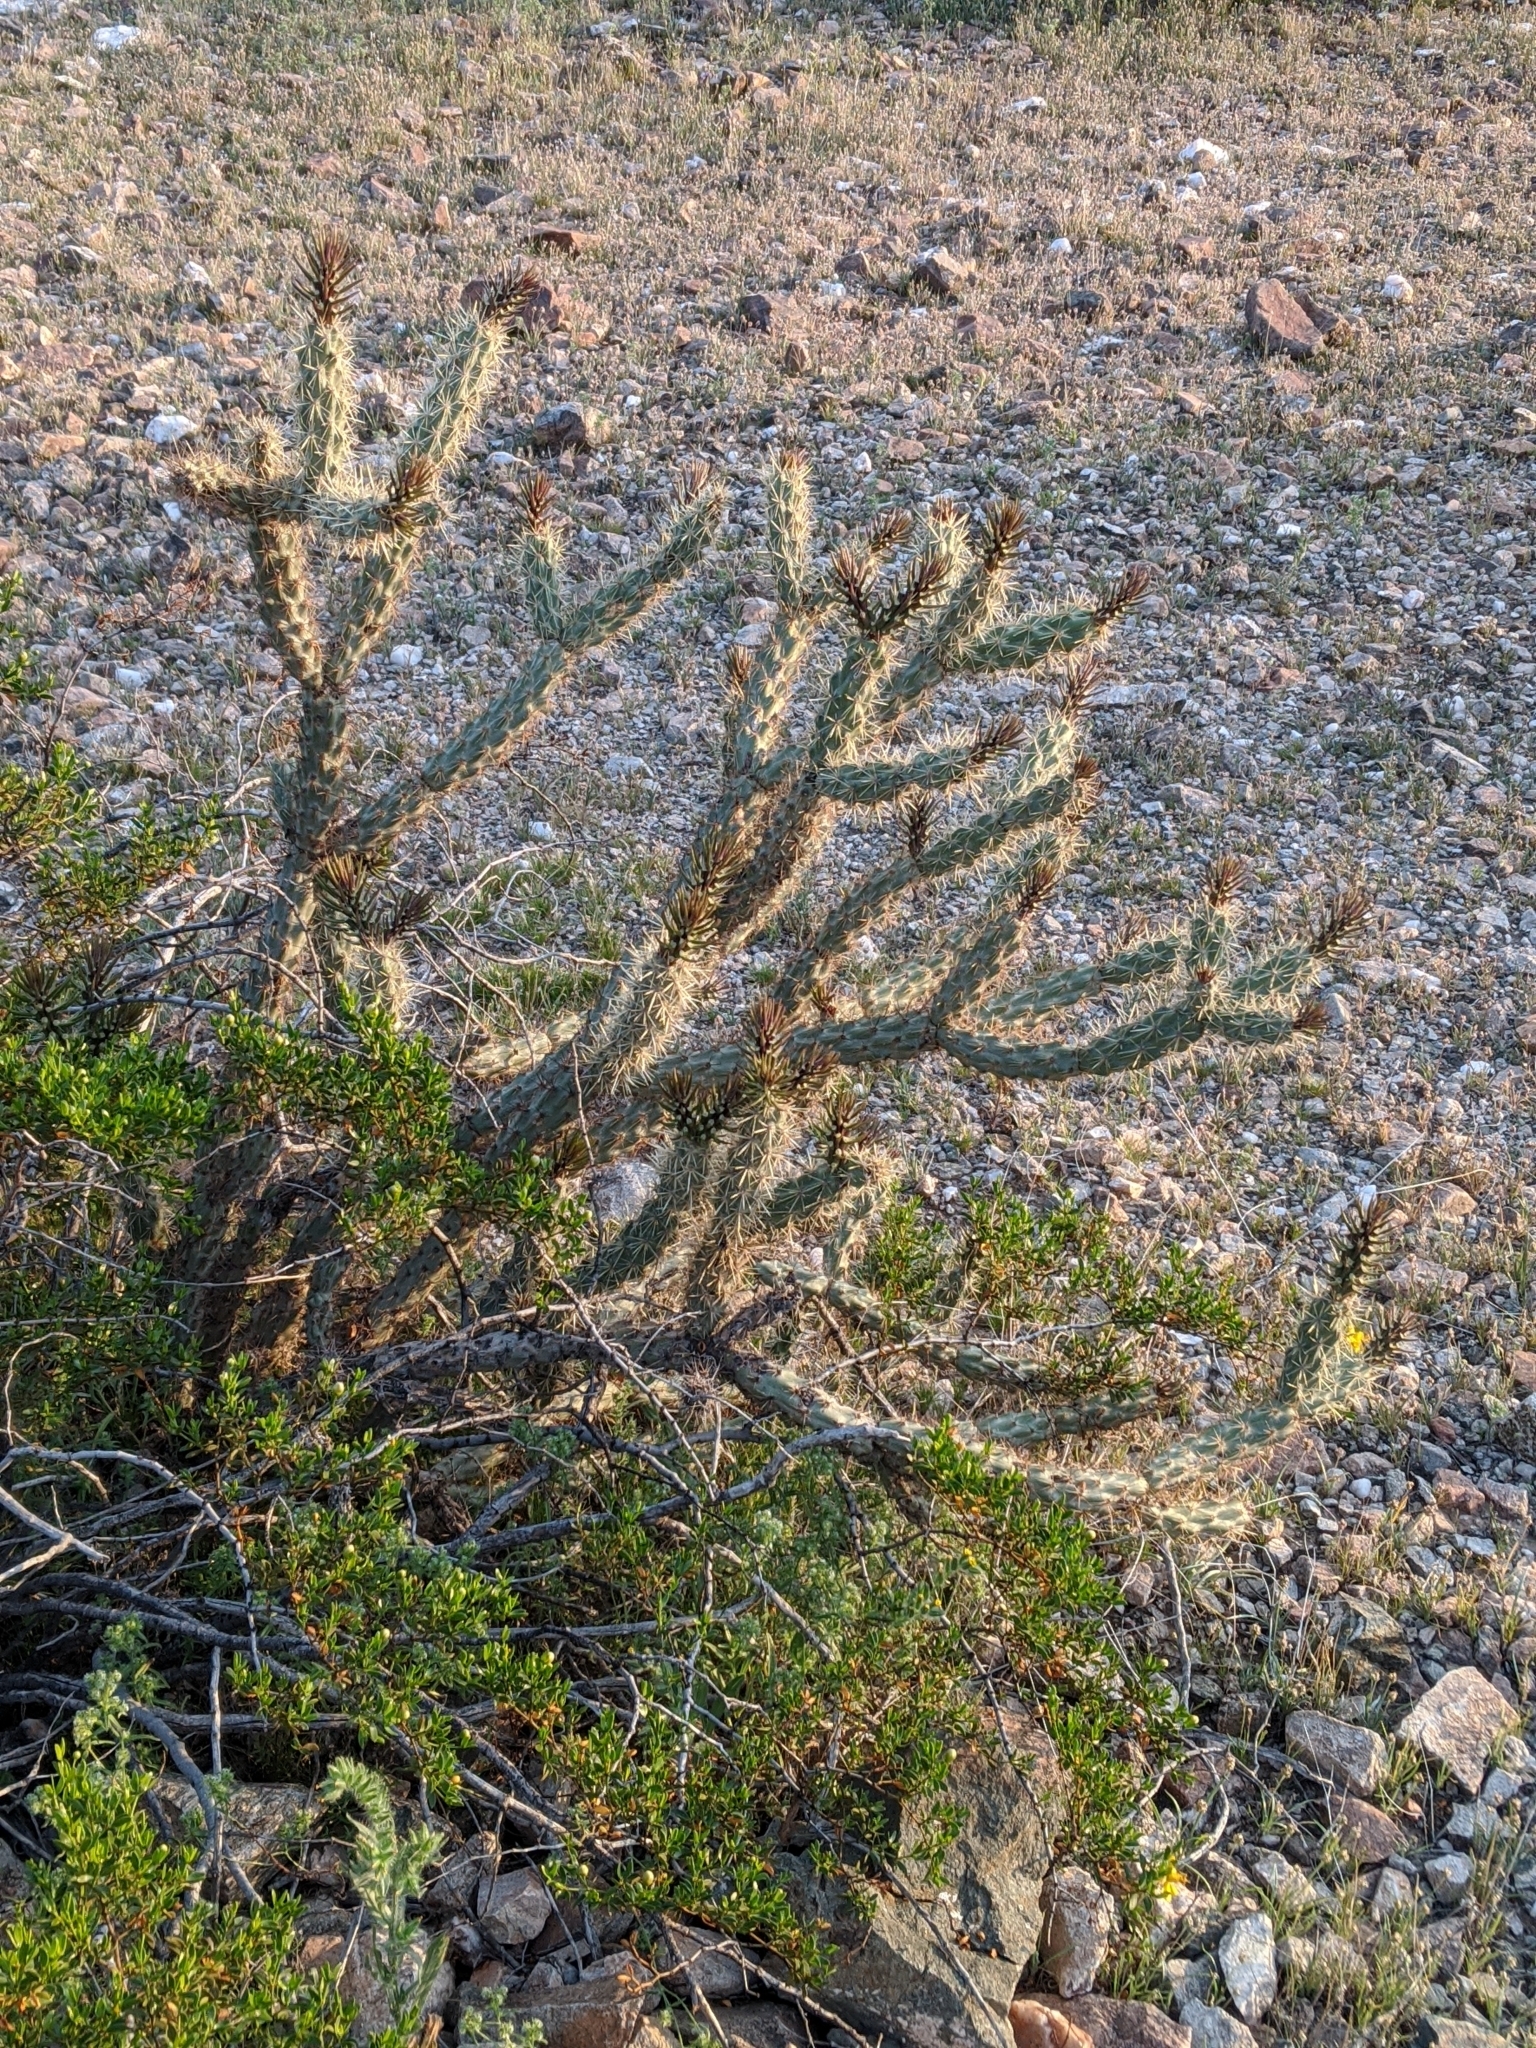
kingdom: Plantae
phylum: Tracheophyta
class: Magnoliopsida
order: Caryophyllales
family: Cactaceae
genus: Cylindropuntia
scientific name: Cylindropuntia acanthocarpa
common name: Buckhorn cholla
